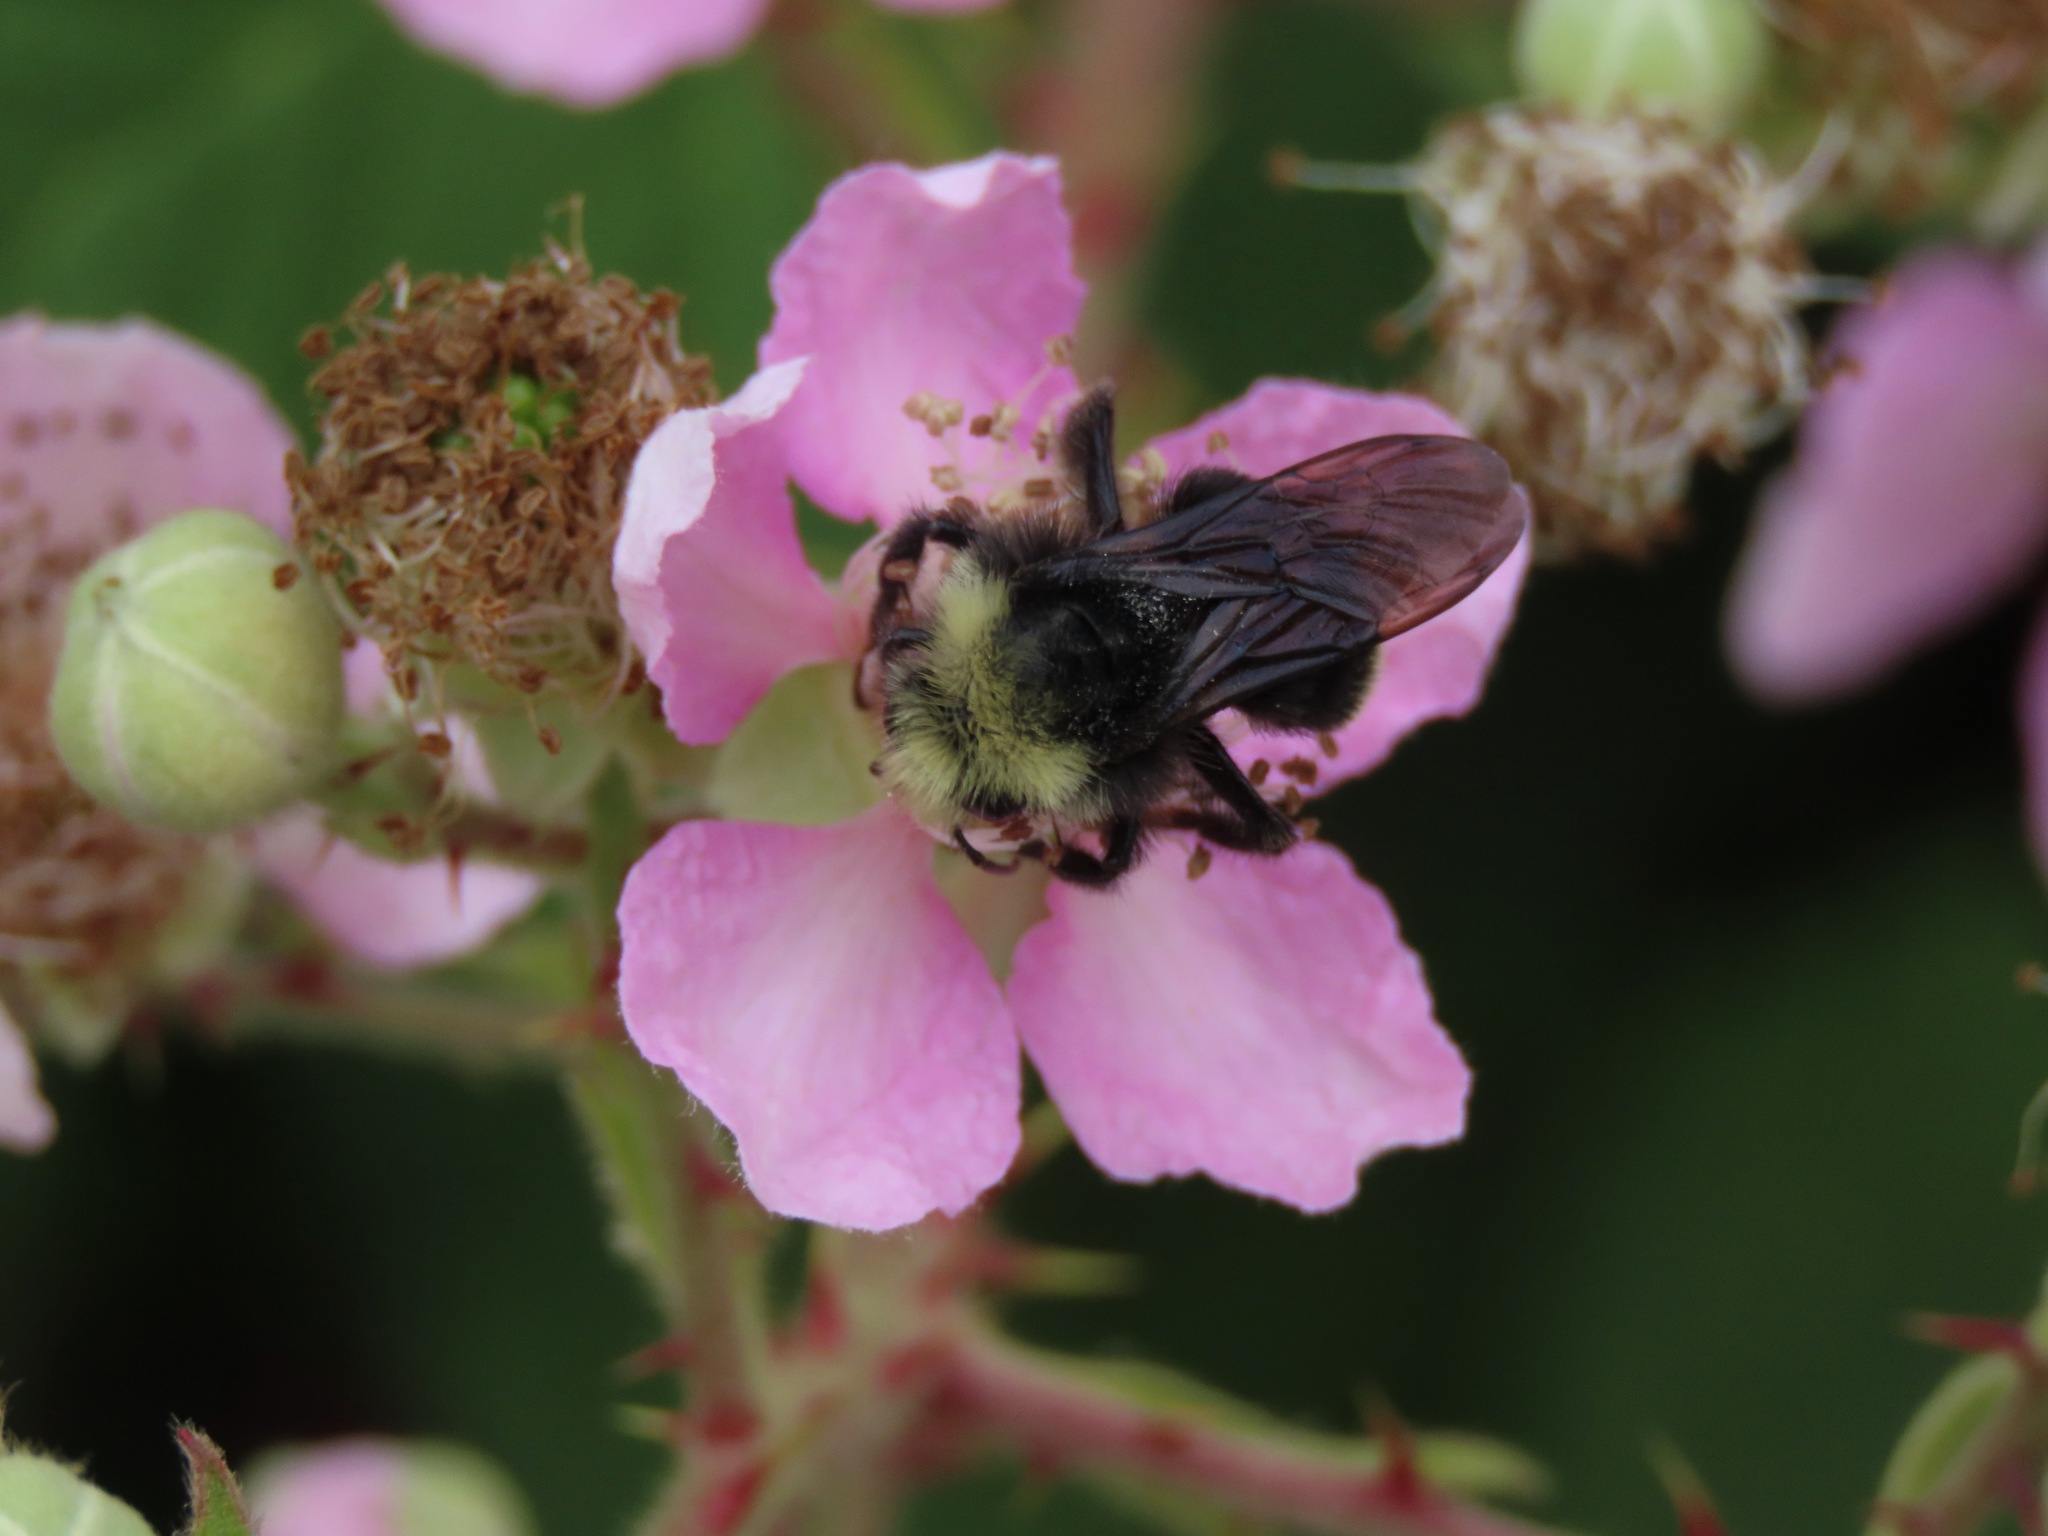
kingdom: Animalia
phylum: Arthropoda
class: Insecta
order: Hymenoptera
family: Apidae
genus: Bombus
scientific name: Bombus vosnesenskii
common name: Vosnesensky bumble bee
